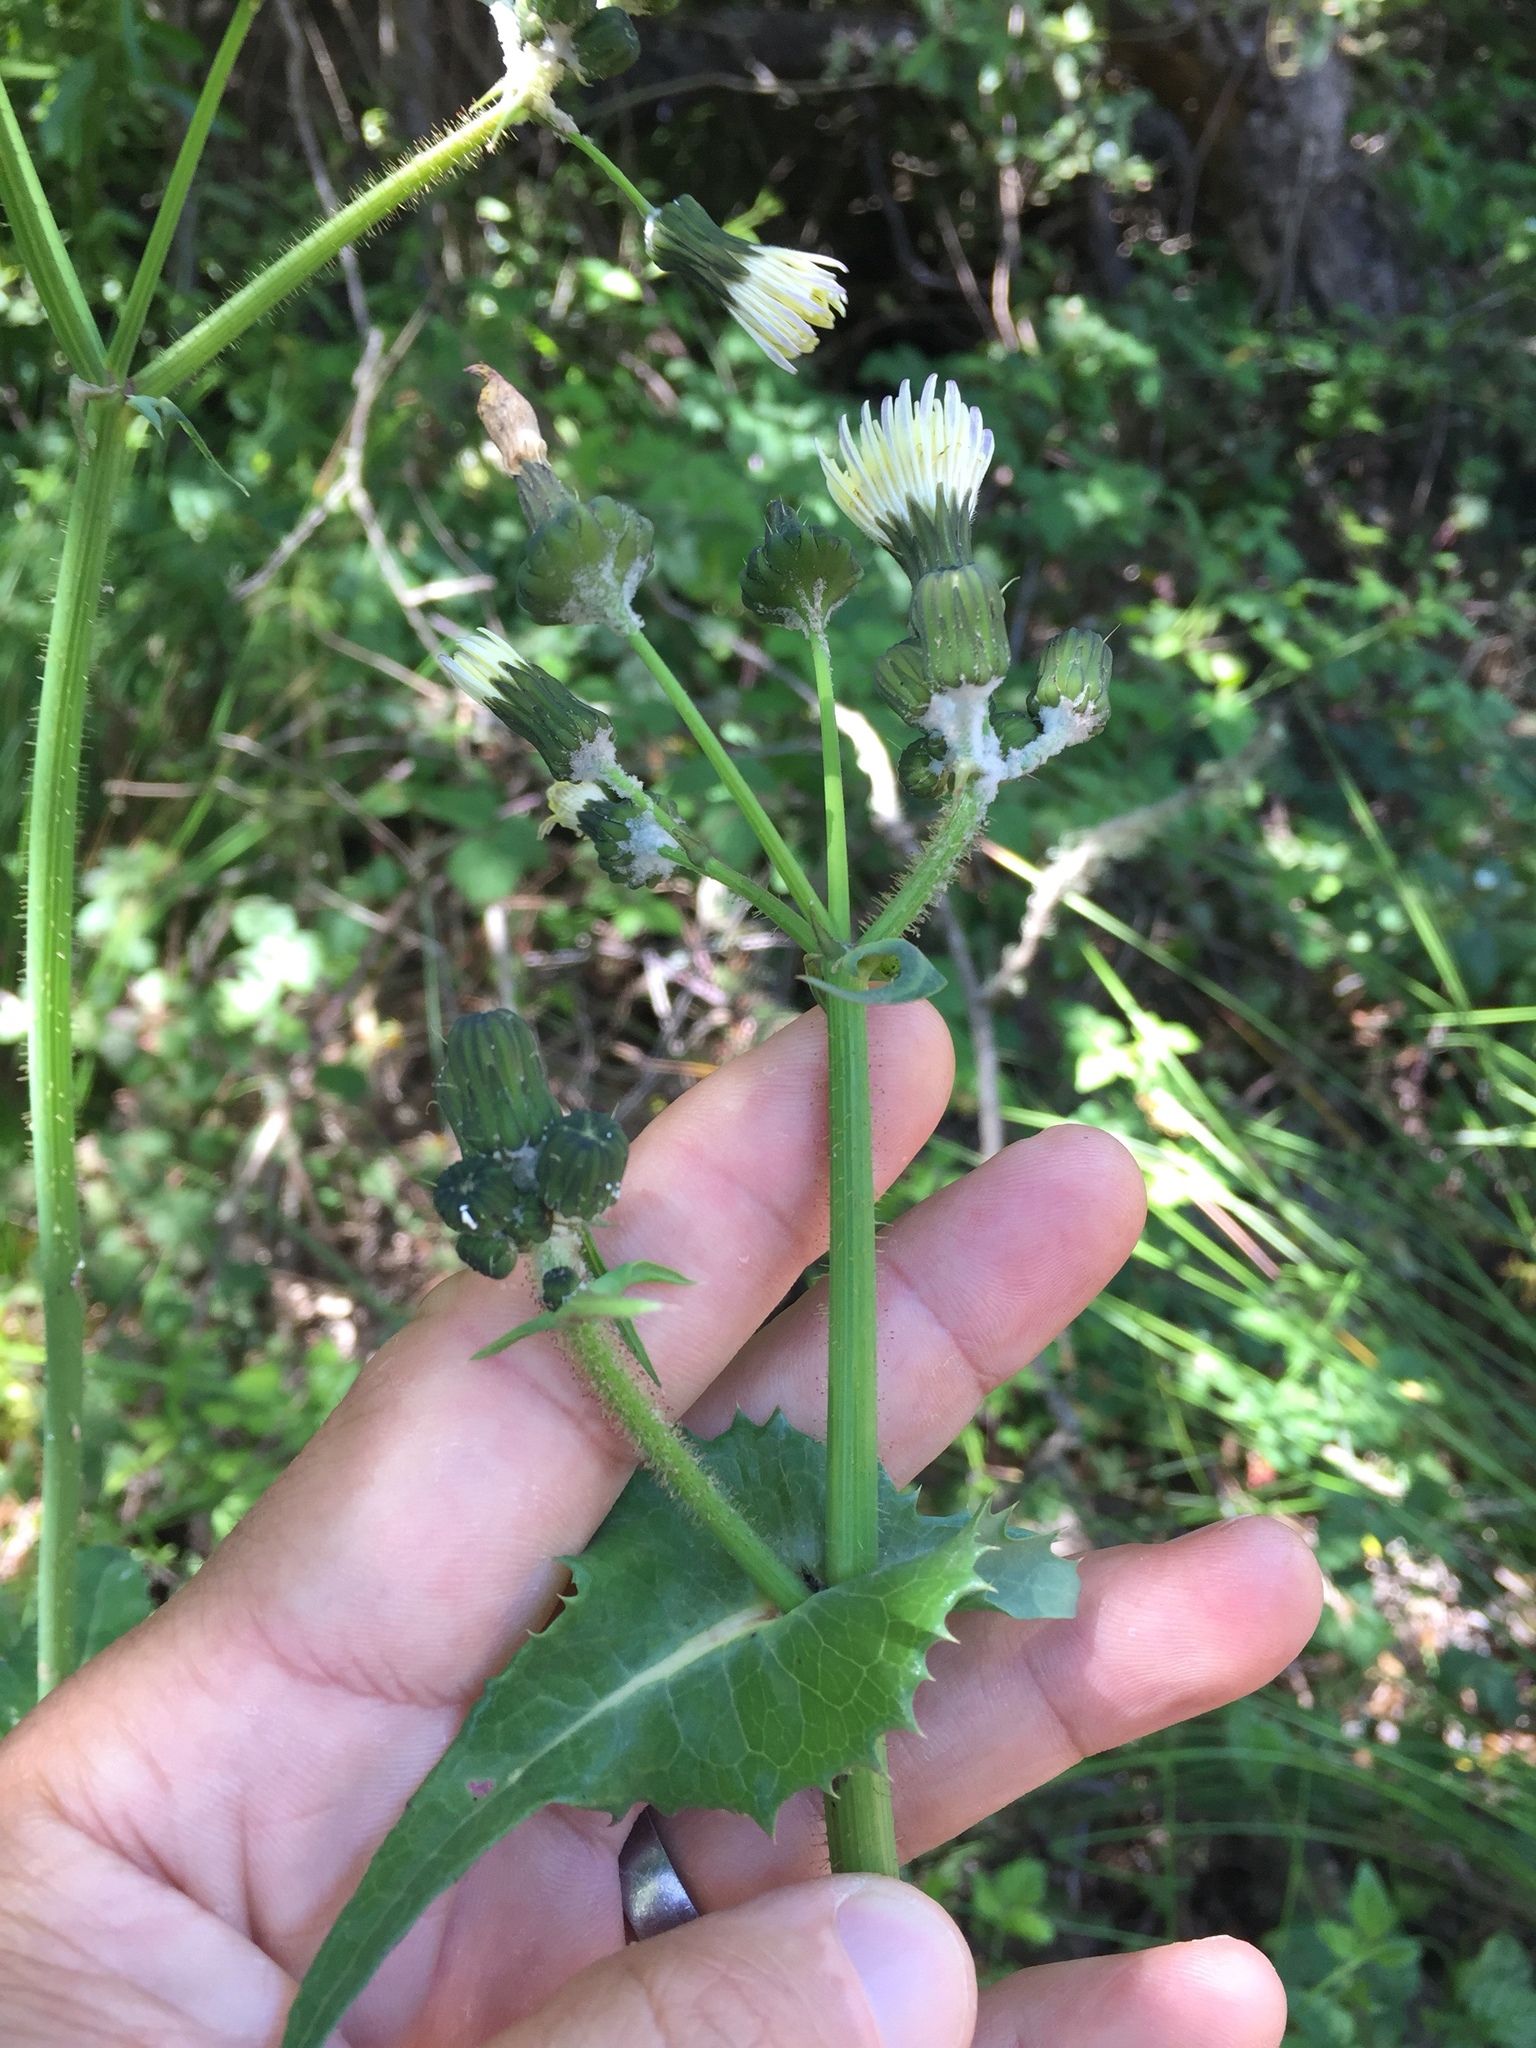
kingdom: Plantae
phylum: Tracheophyta
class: Magnoliopsida
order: Asterales
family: Asteraceae
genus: Sonchus
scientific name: Sonchus oleraceus
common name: Common sowthistle
